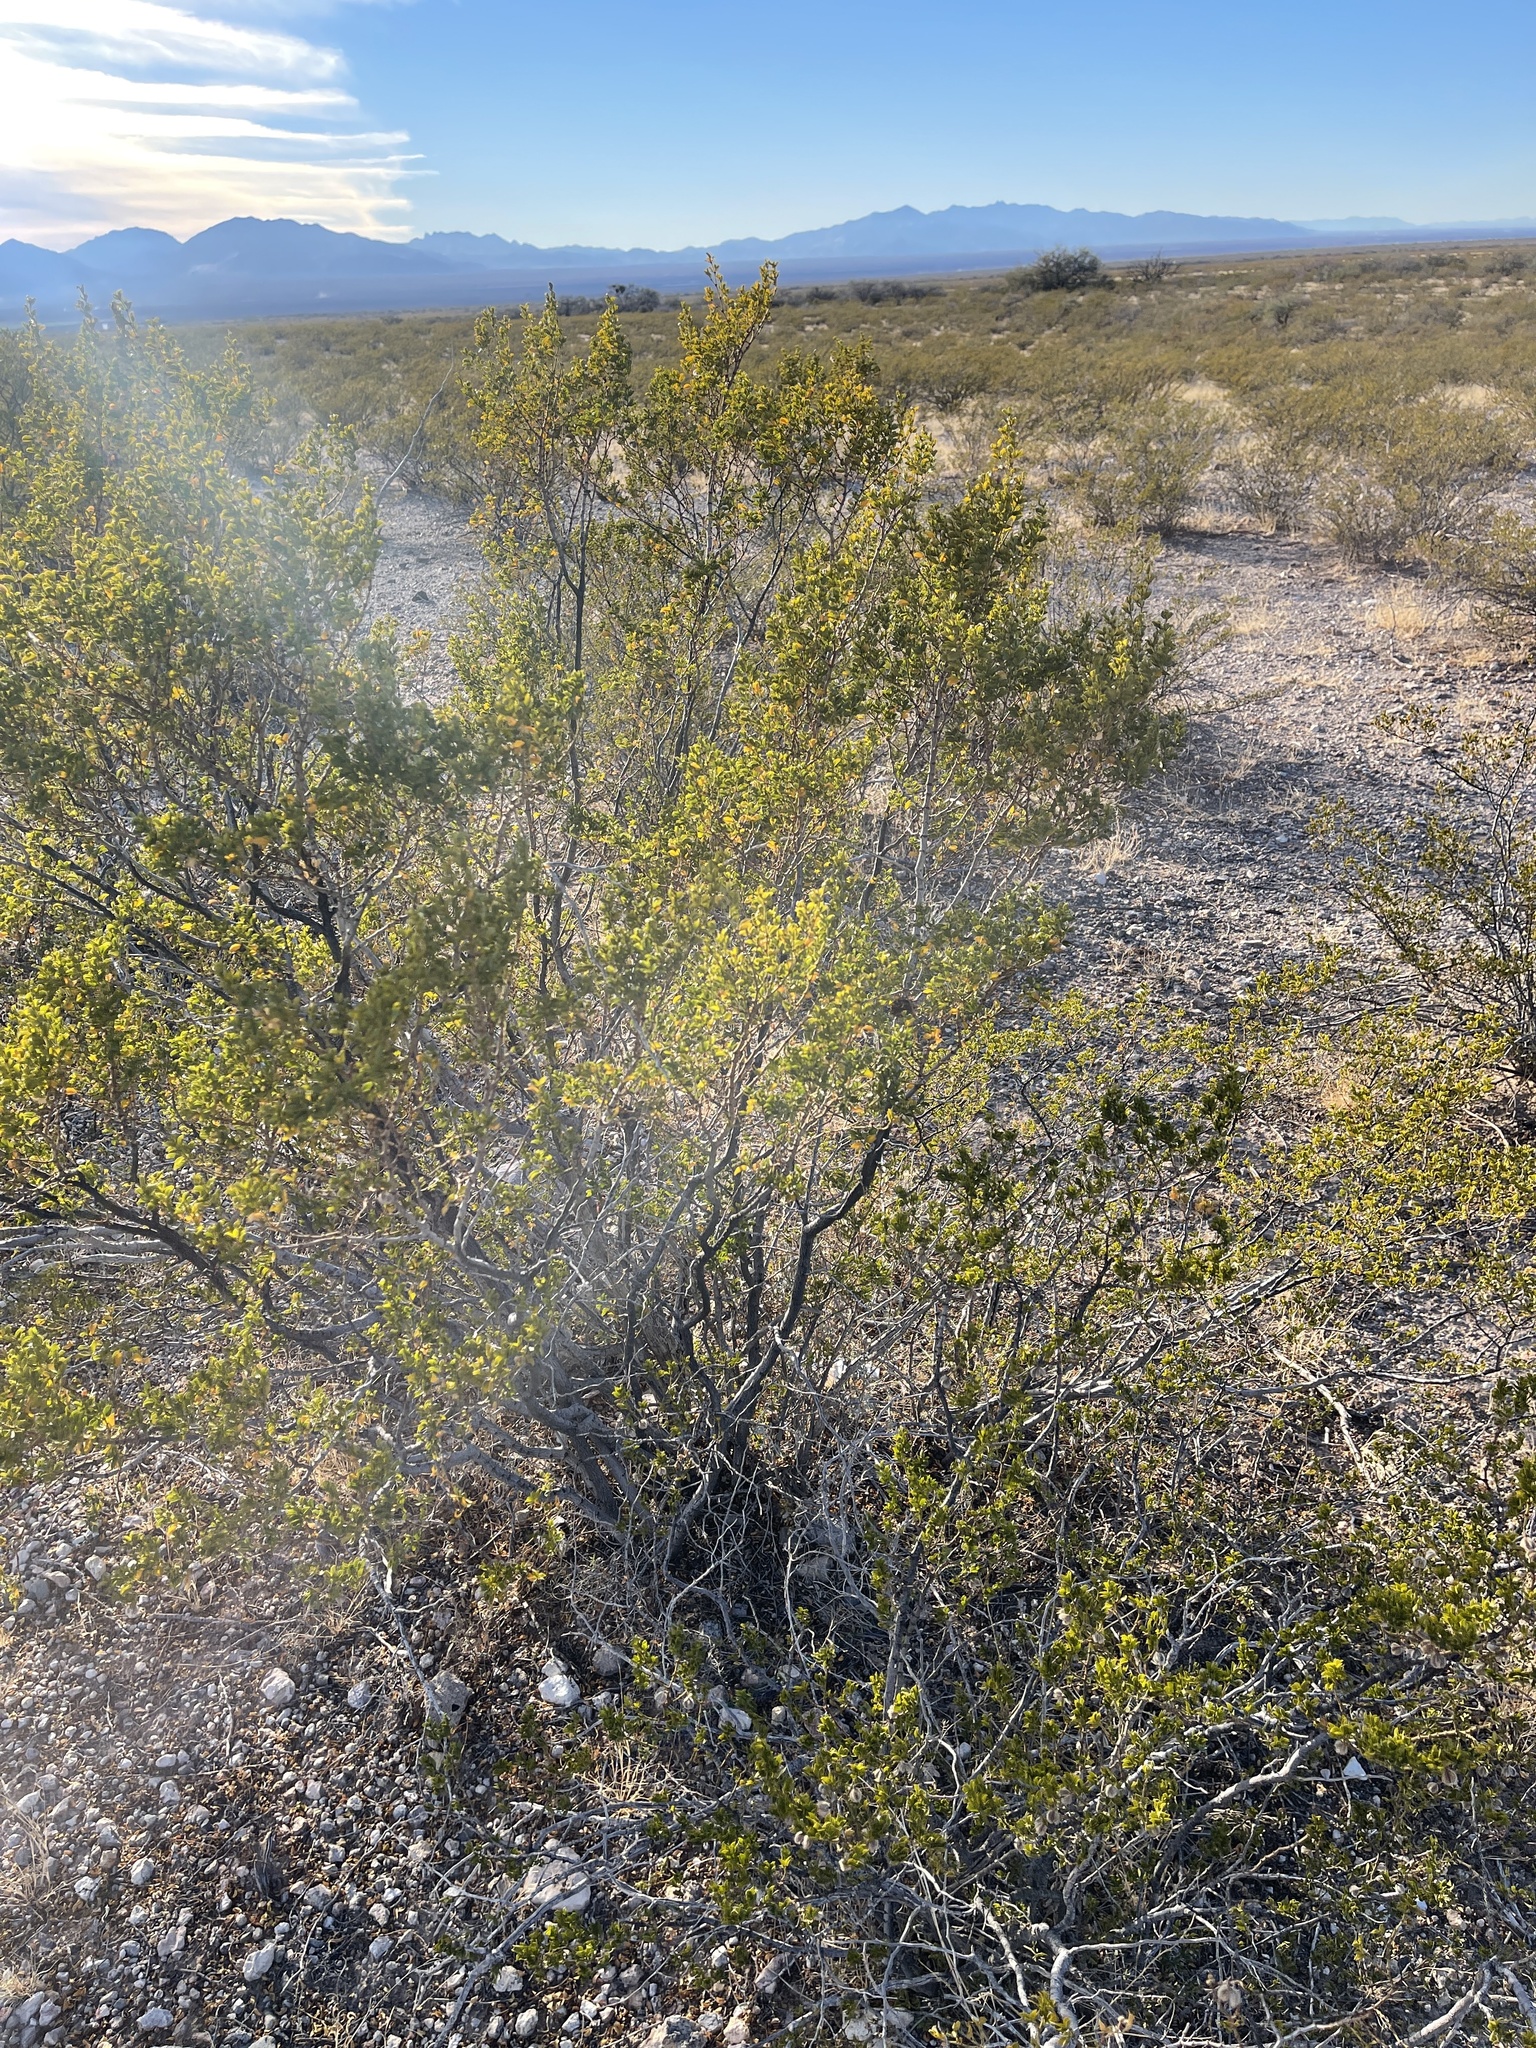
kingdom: Plantae
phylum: Tracheophyta
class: Magnoliopsida
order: Zygophyllales
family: Zygophyllaceae
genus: Larrea
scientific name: Larrea tridentata
